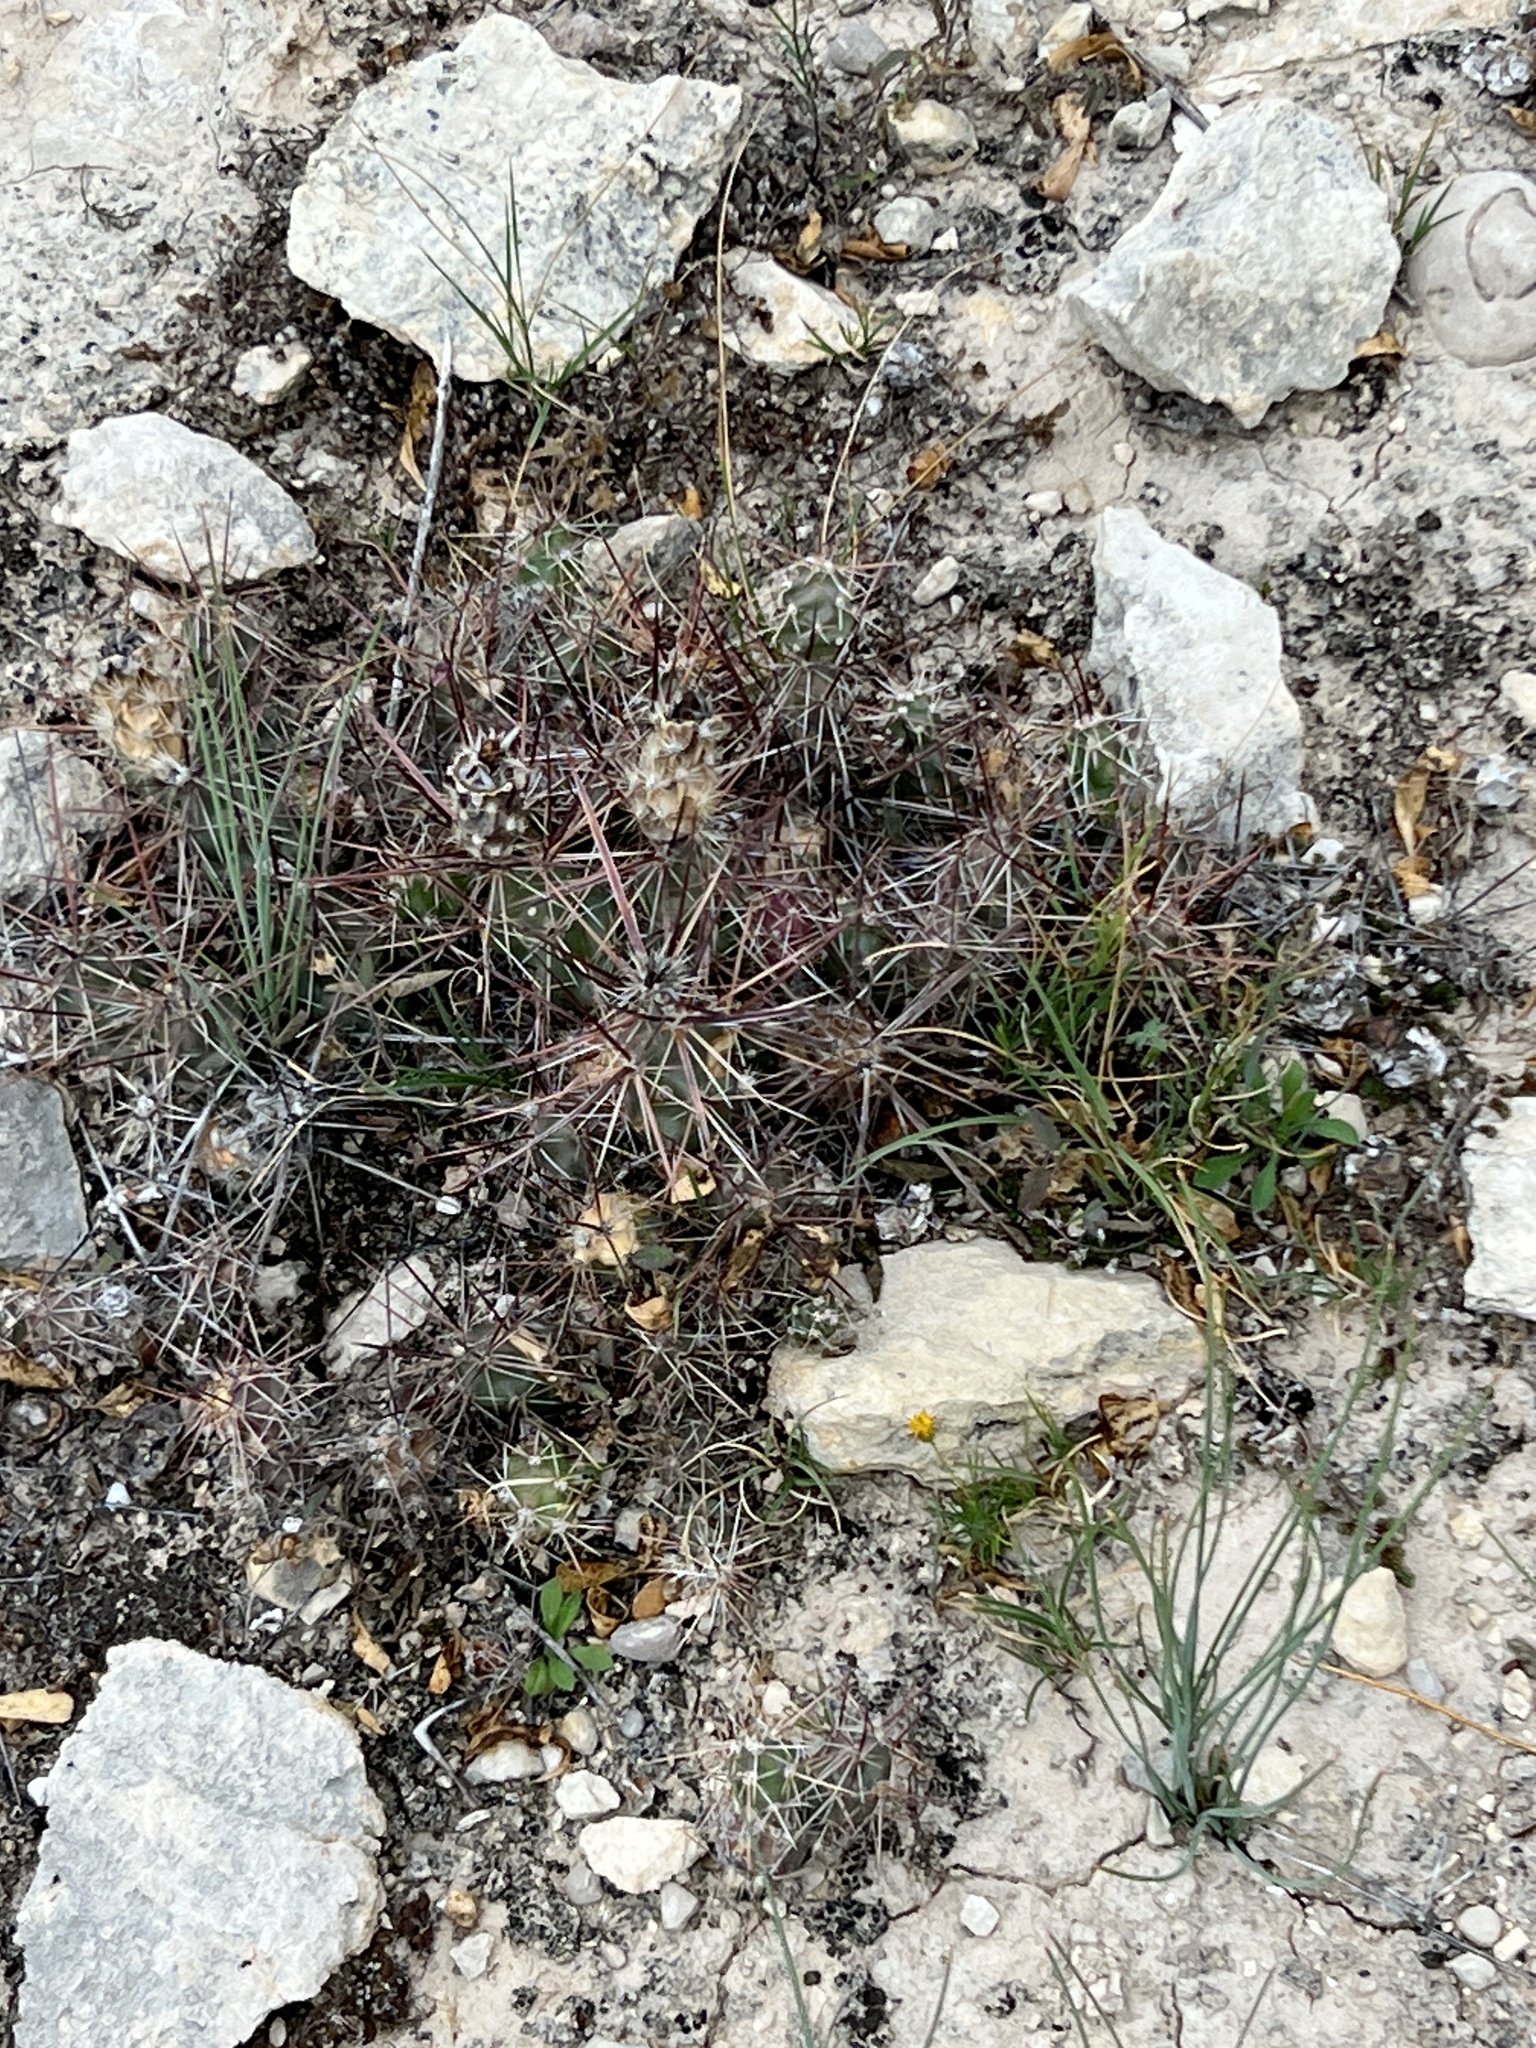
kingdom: Plantae
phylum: Tracheophyta
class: Magnoliopsida
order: Caryophyllales
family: Cactaceae
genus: Grusonia
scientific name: Grusonia schottii
